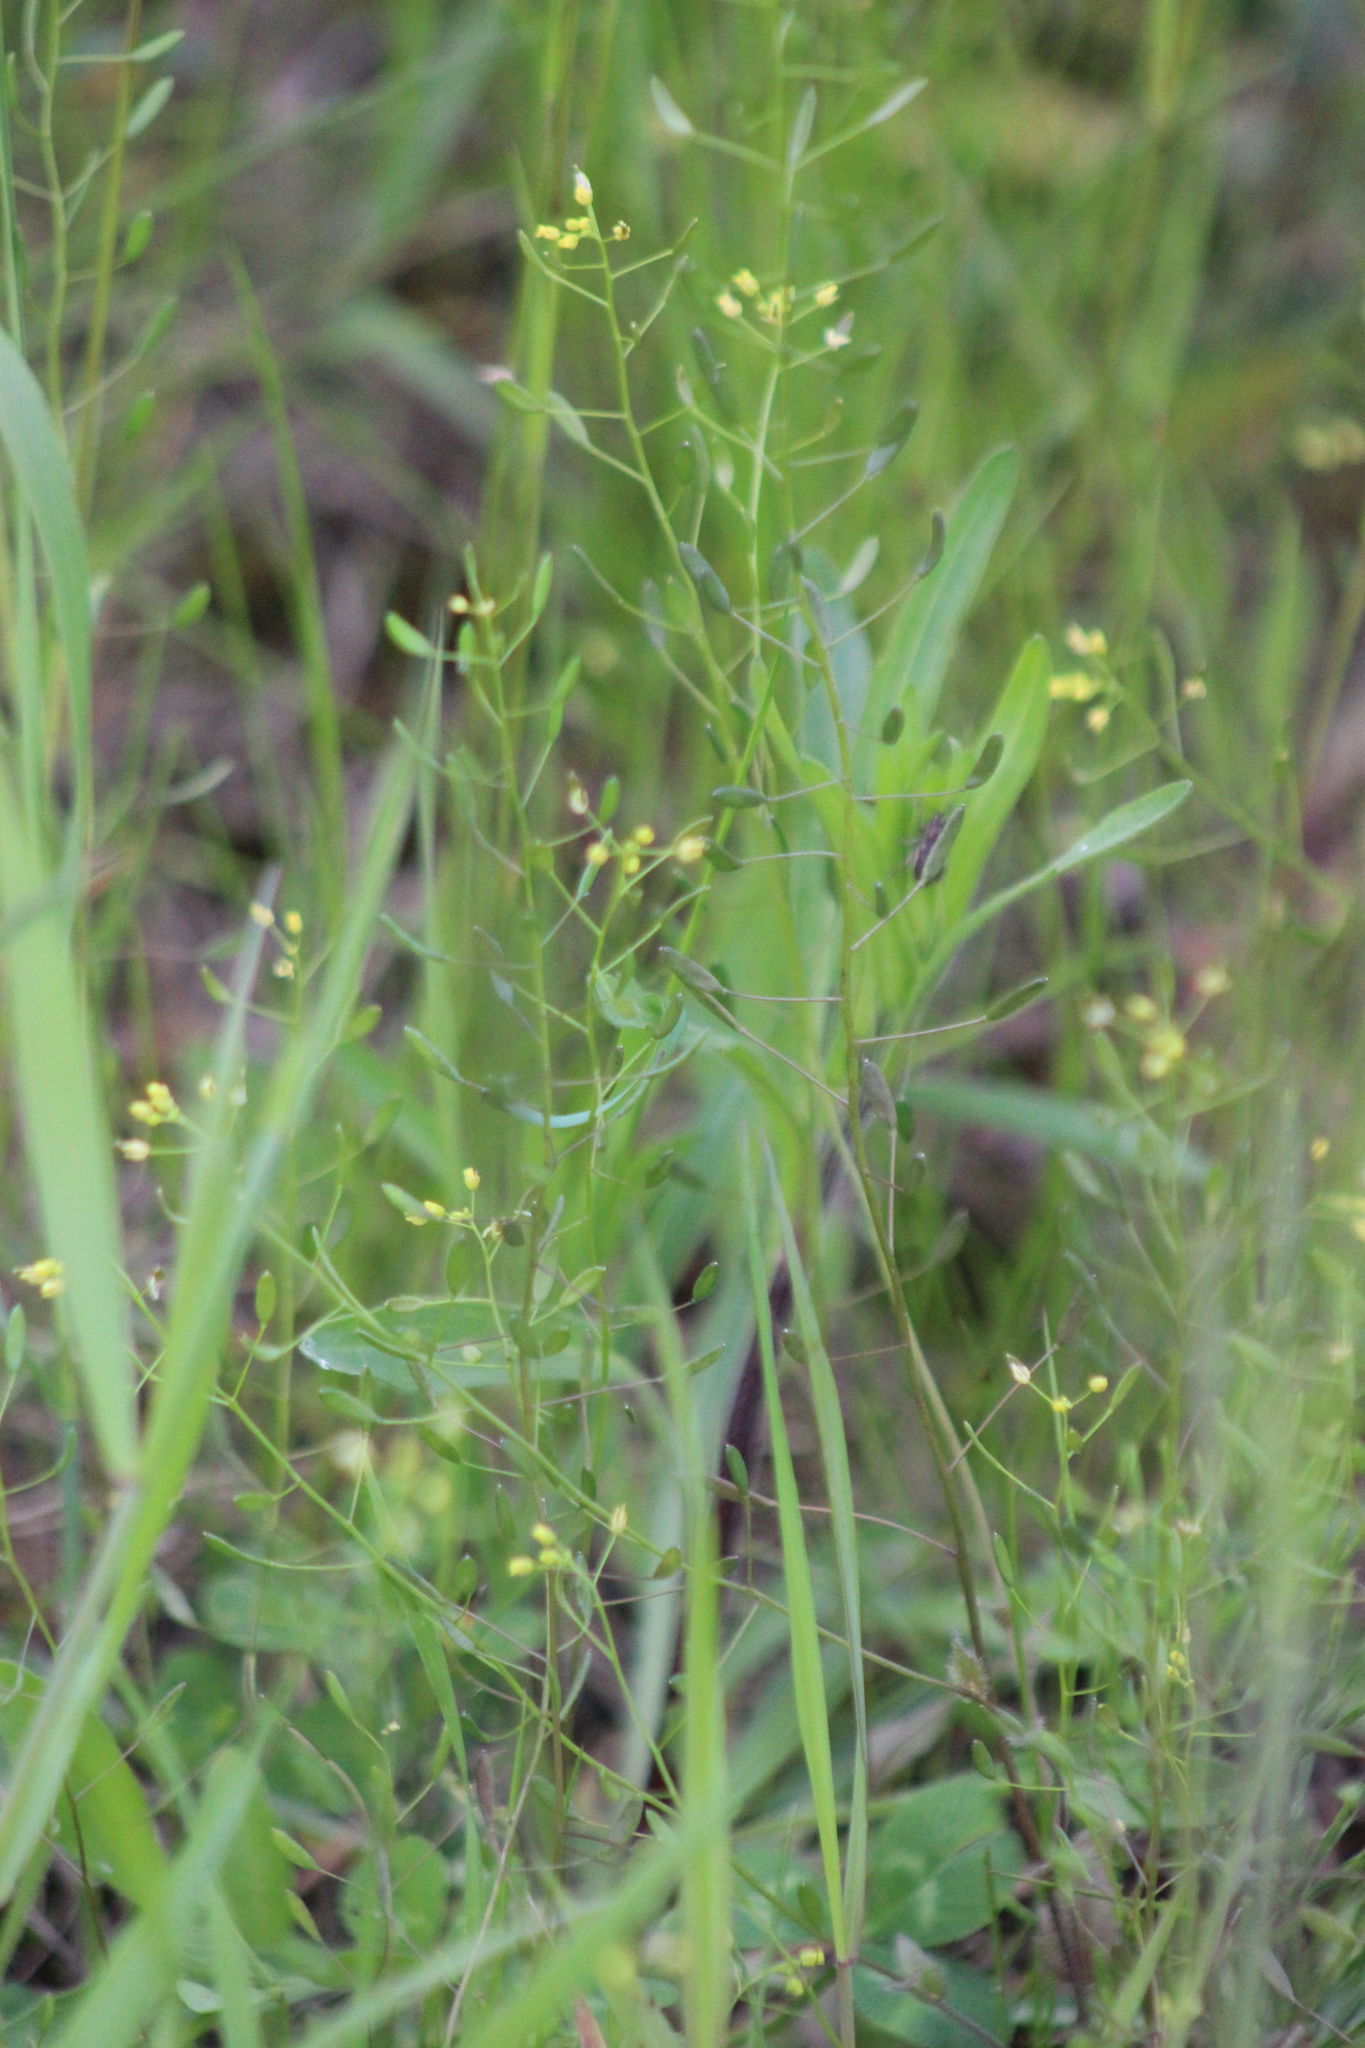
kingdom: Plantae
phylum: Tracheophyta
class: Magnoliopsida
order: Brassicales
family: Brassicaceae
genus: Draba
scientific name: Draba nemorosa
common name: Wood whitlow-grass
